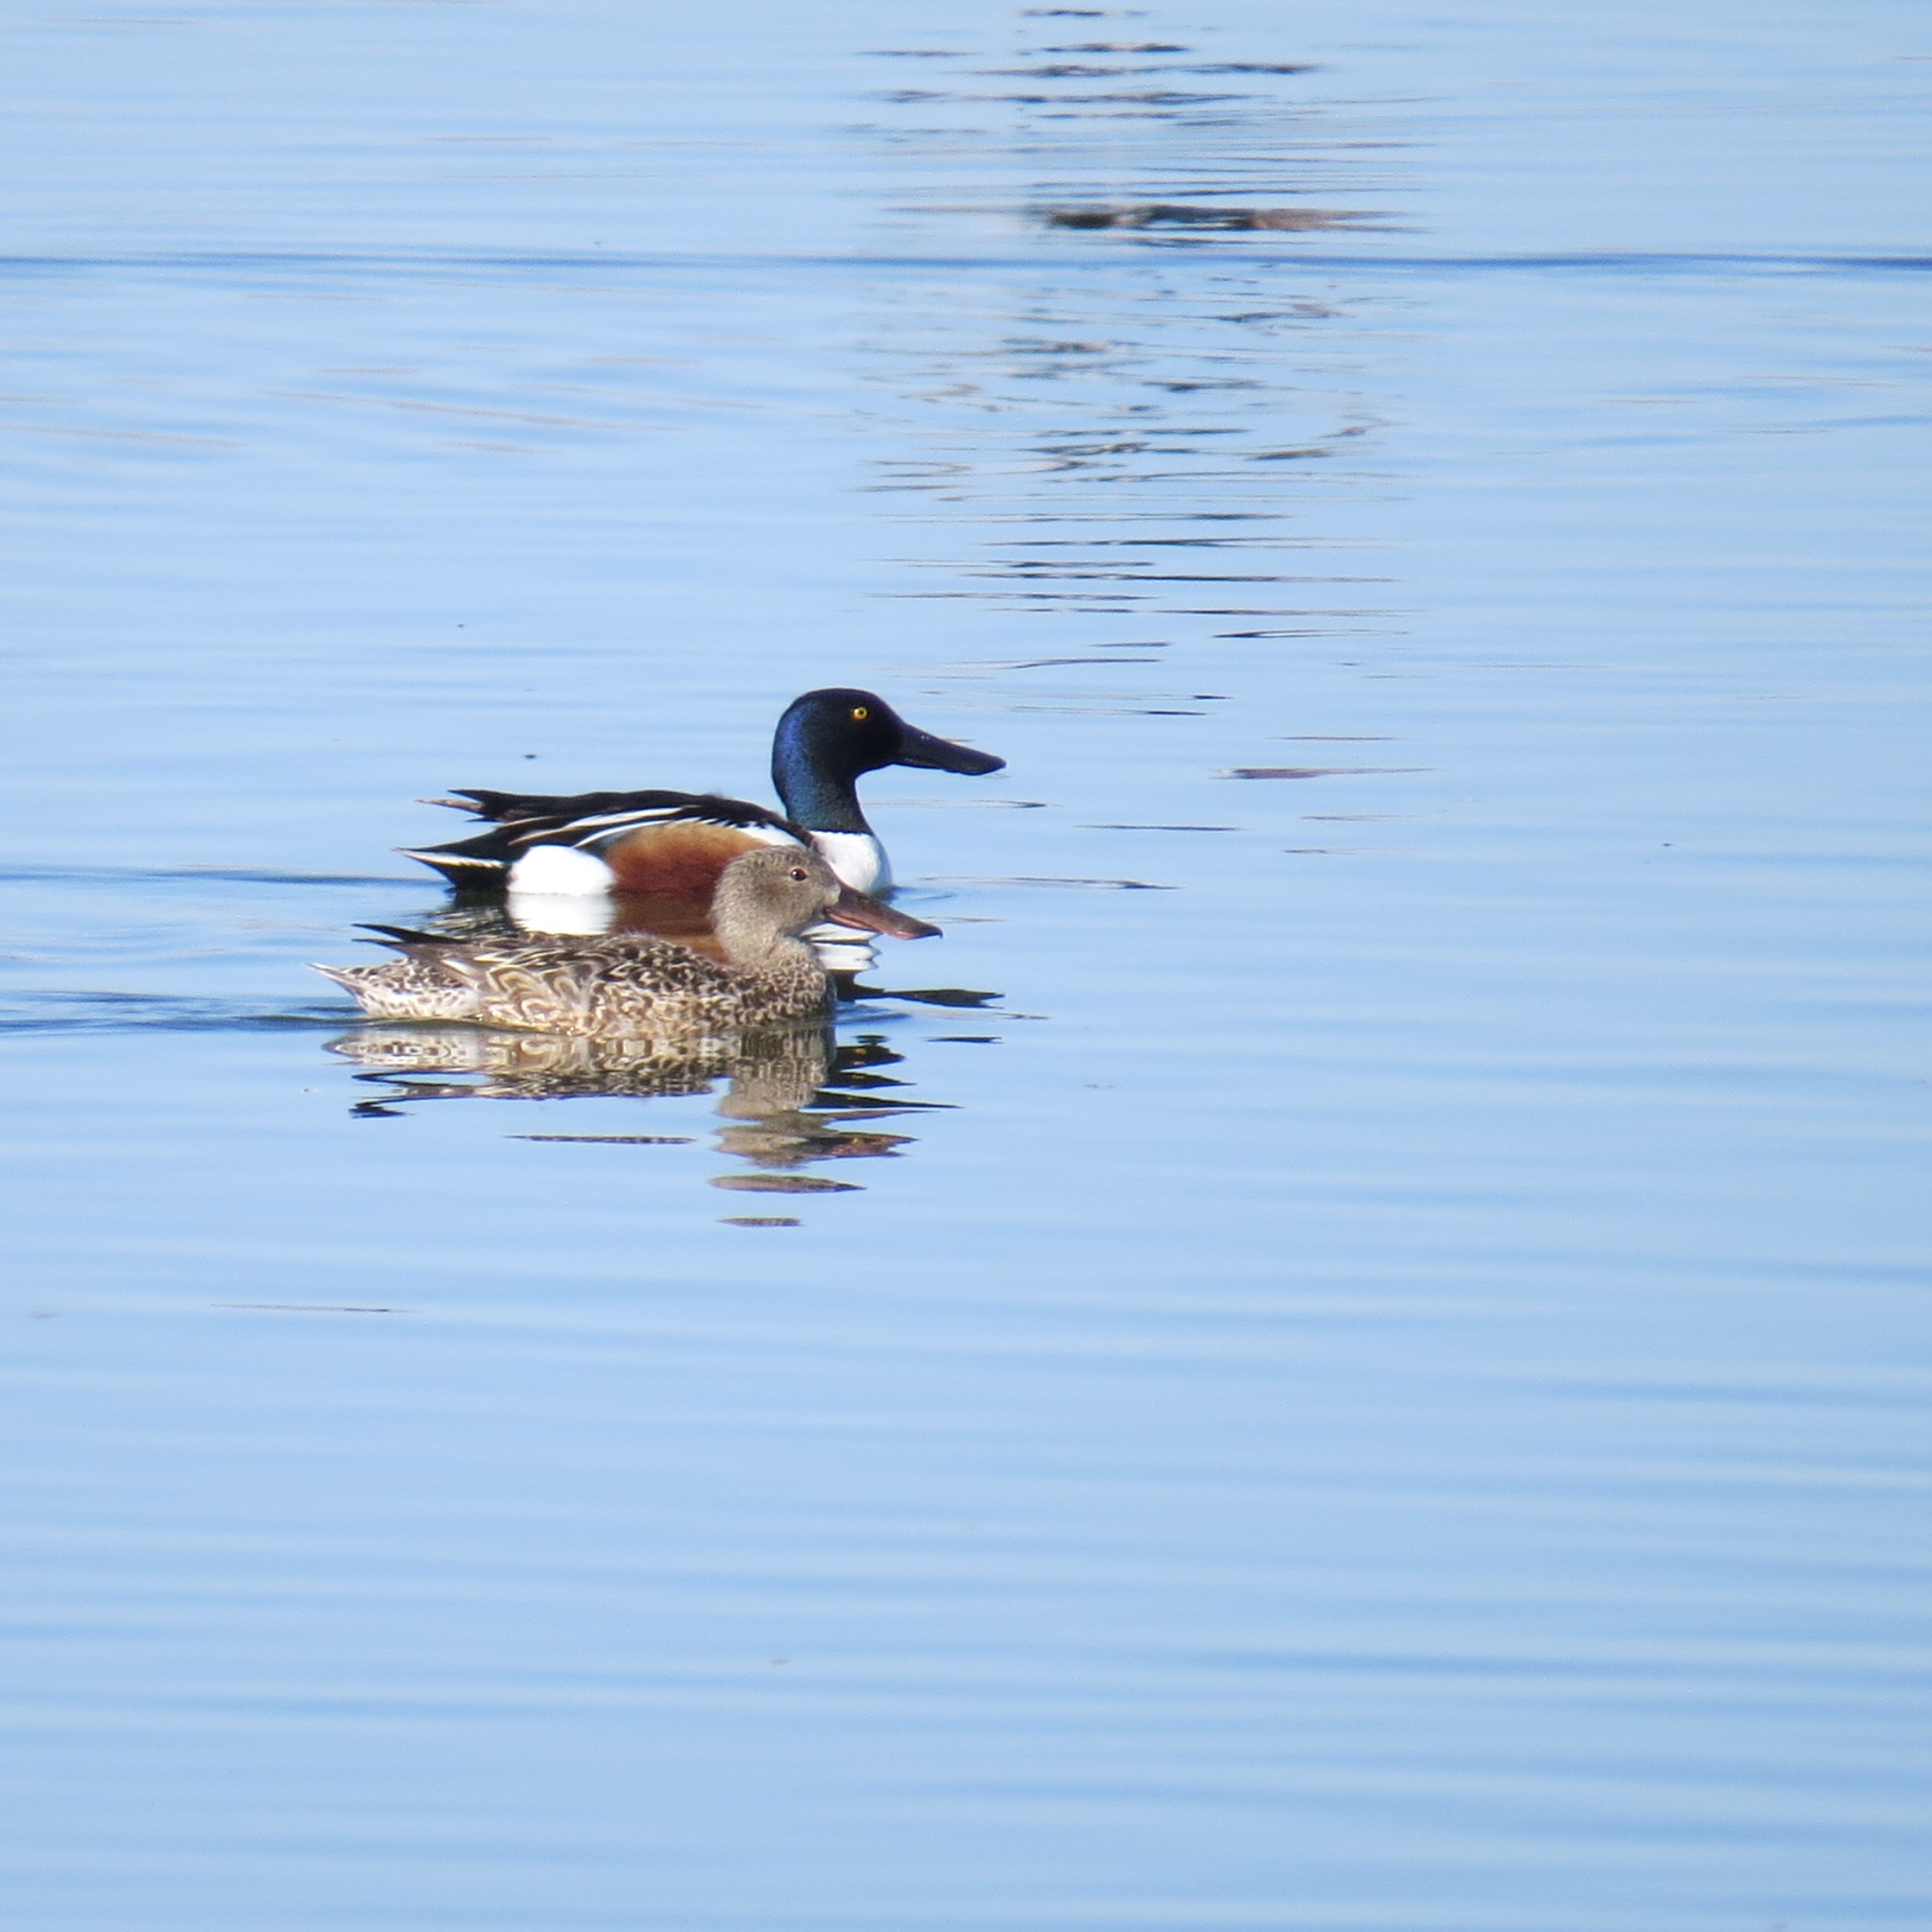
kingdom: Animalia
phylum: Chordata
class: Aves
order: Anseriformes
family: Anatidae
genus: Spatula
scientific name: Spatula clypeata
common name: Northern shoveler
